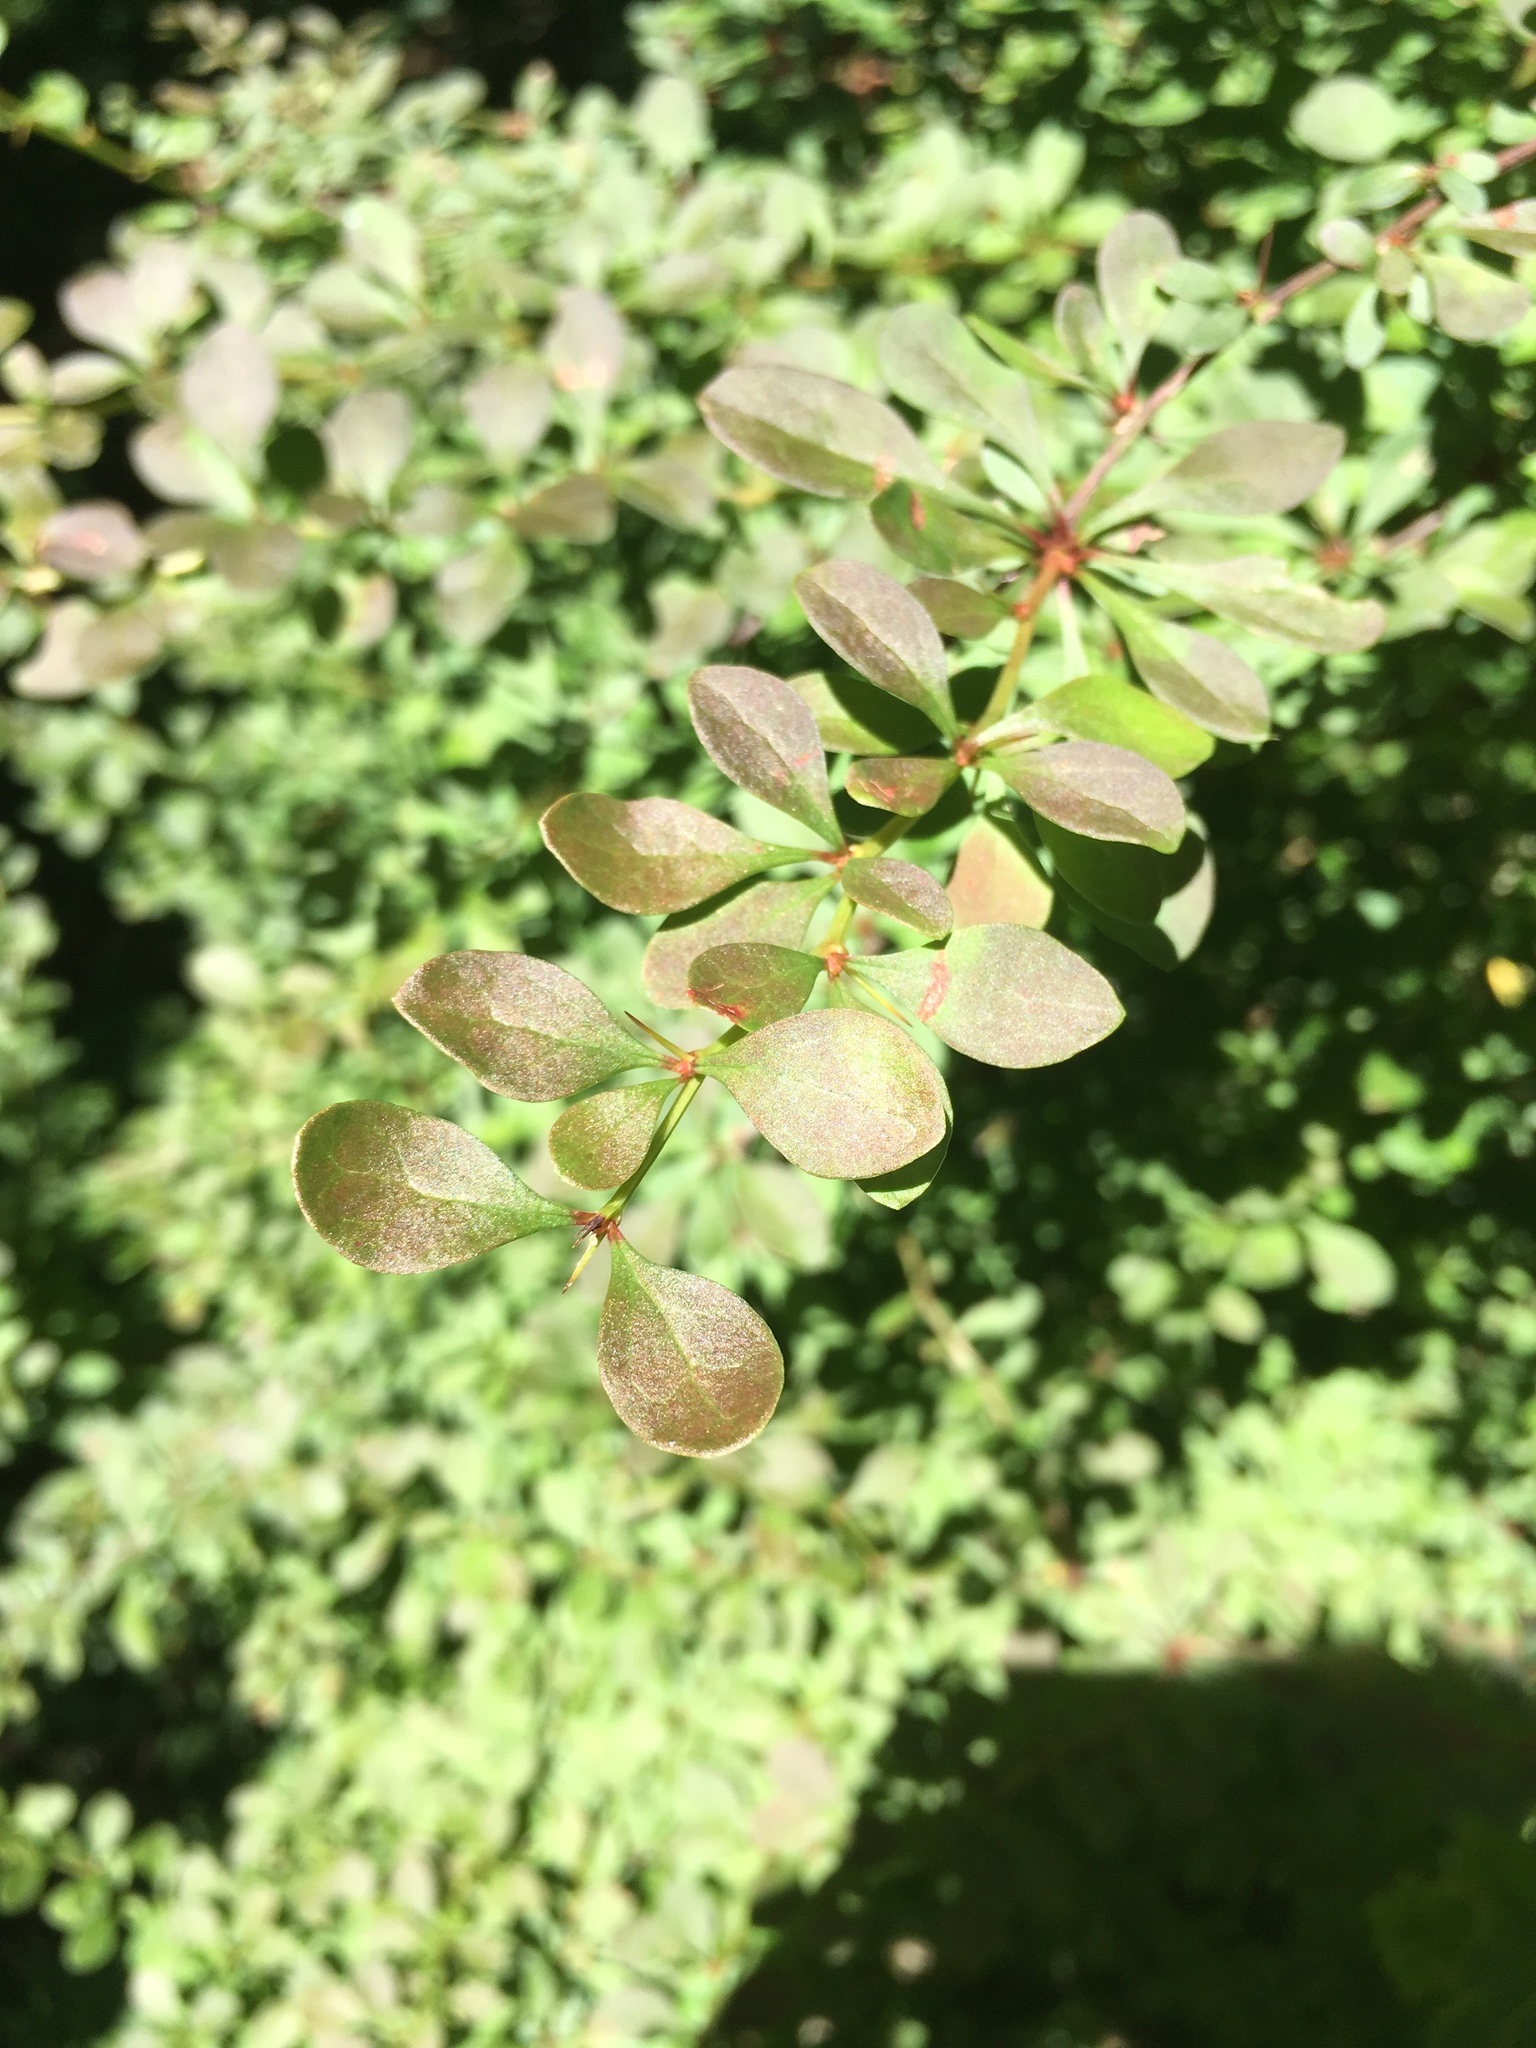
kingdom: Plantae
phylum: Tracheophyta
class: Magnoliopsida
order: Ranunculales
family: Berberidaceae
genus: Berberis
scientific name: Berberis thunbergii
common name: Japanese barberry
